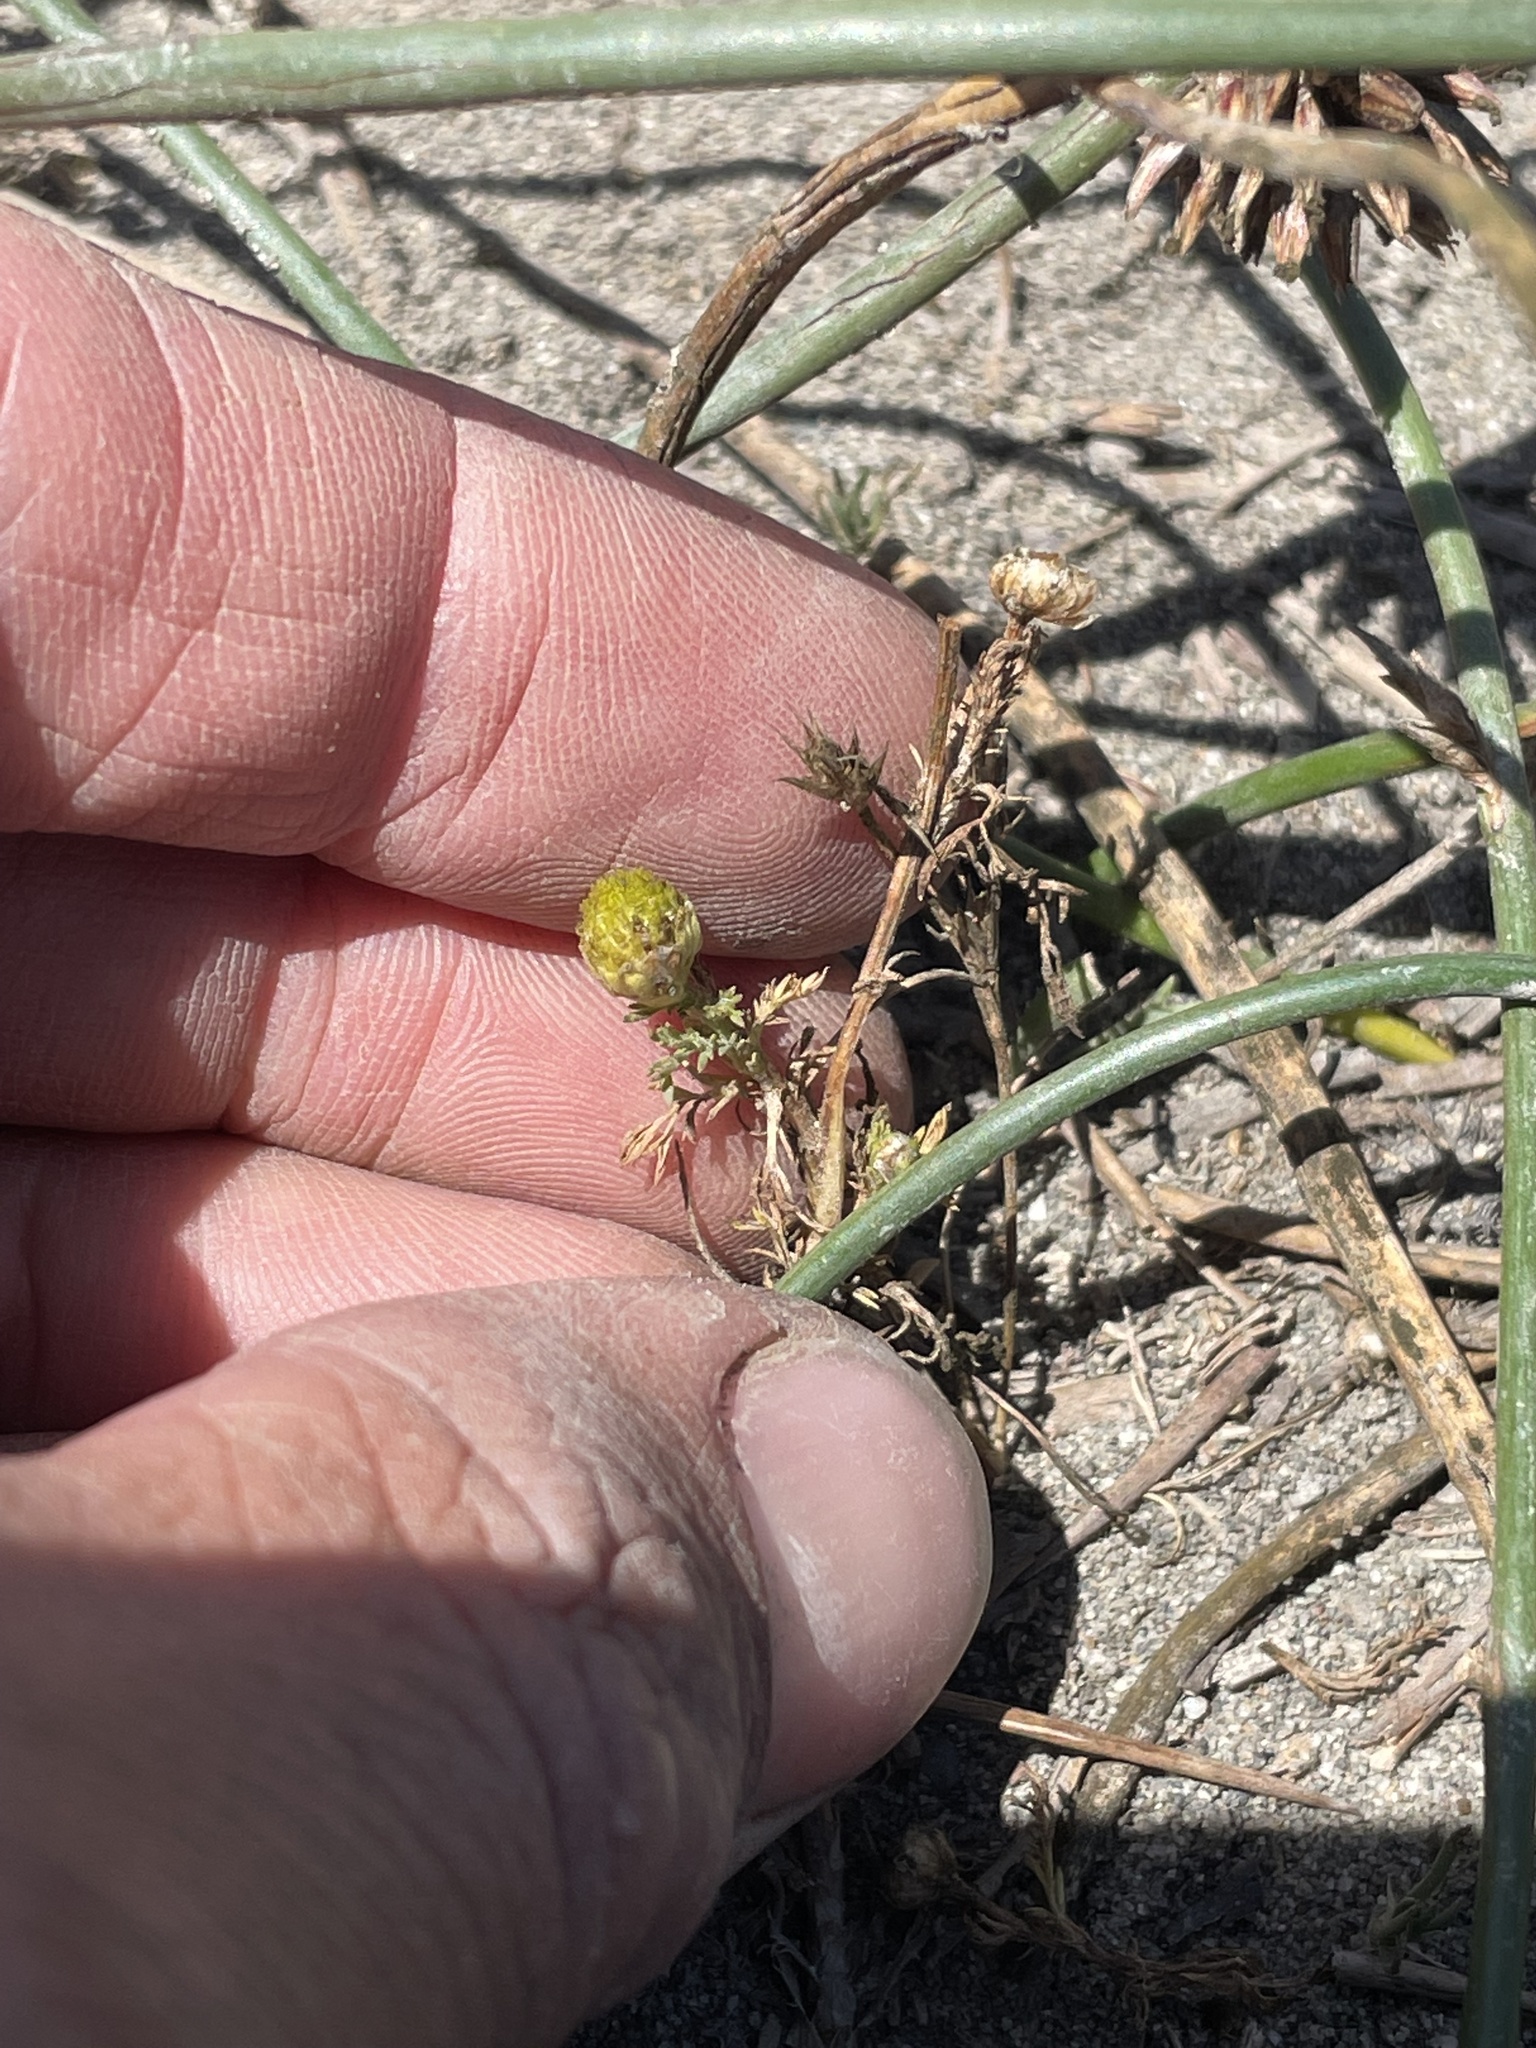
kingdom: Plantae
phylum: Tracheophyta
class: Magnoliopsida
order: Caryophyllales
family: Caryophyllaceae
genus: Spergularia
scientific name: Spergularia rubra
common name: Red sand-spurrey
